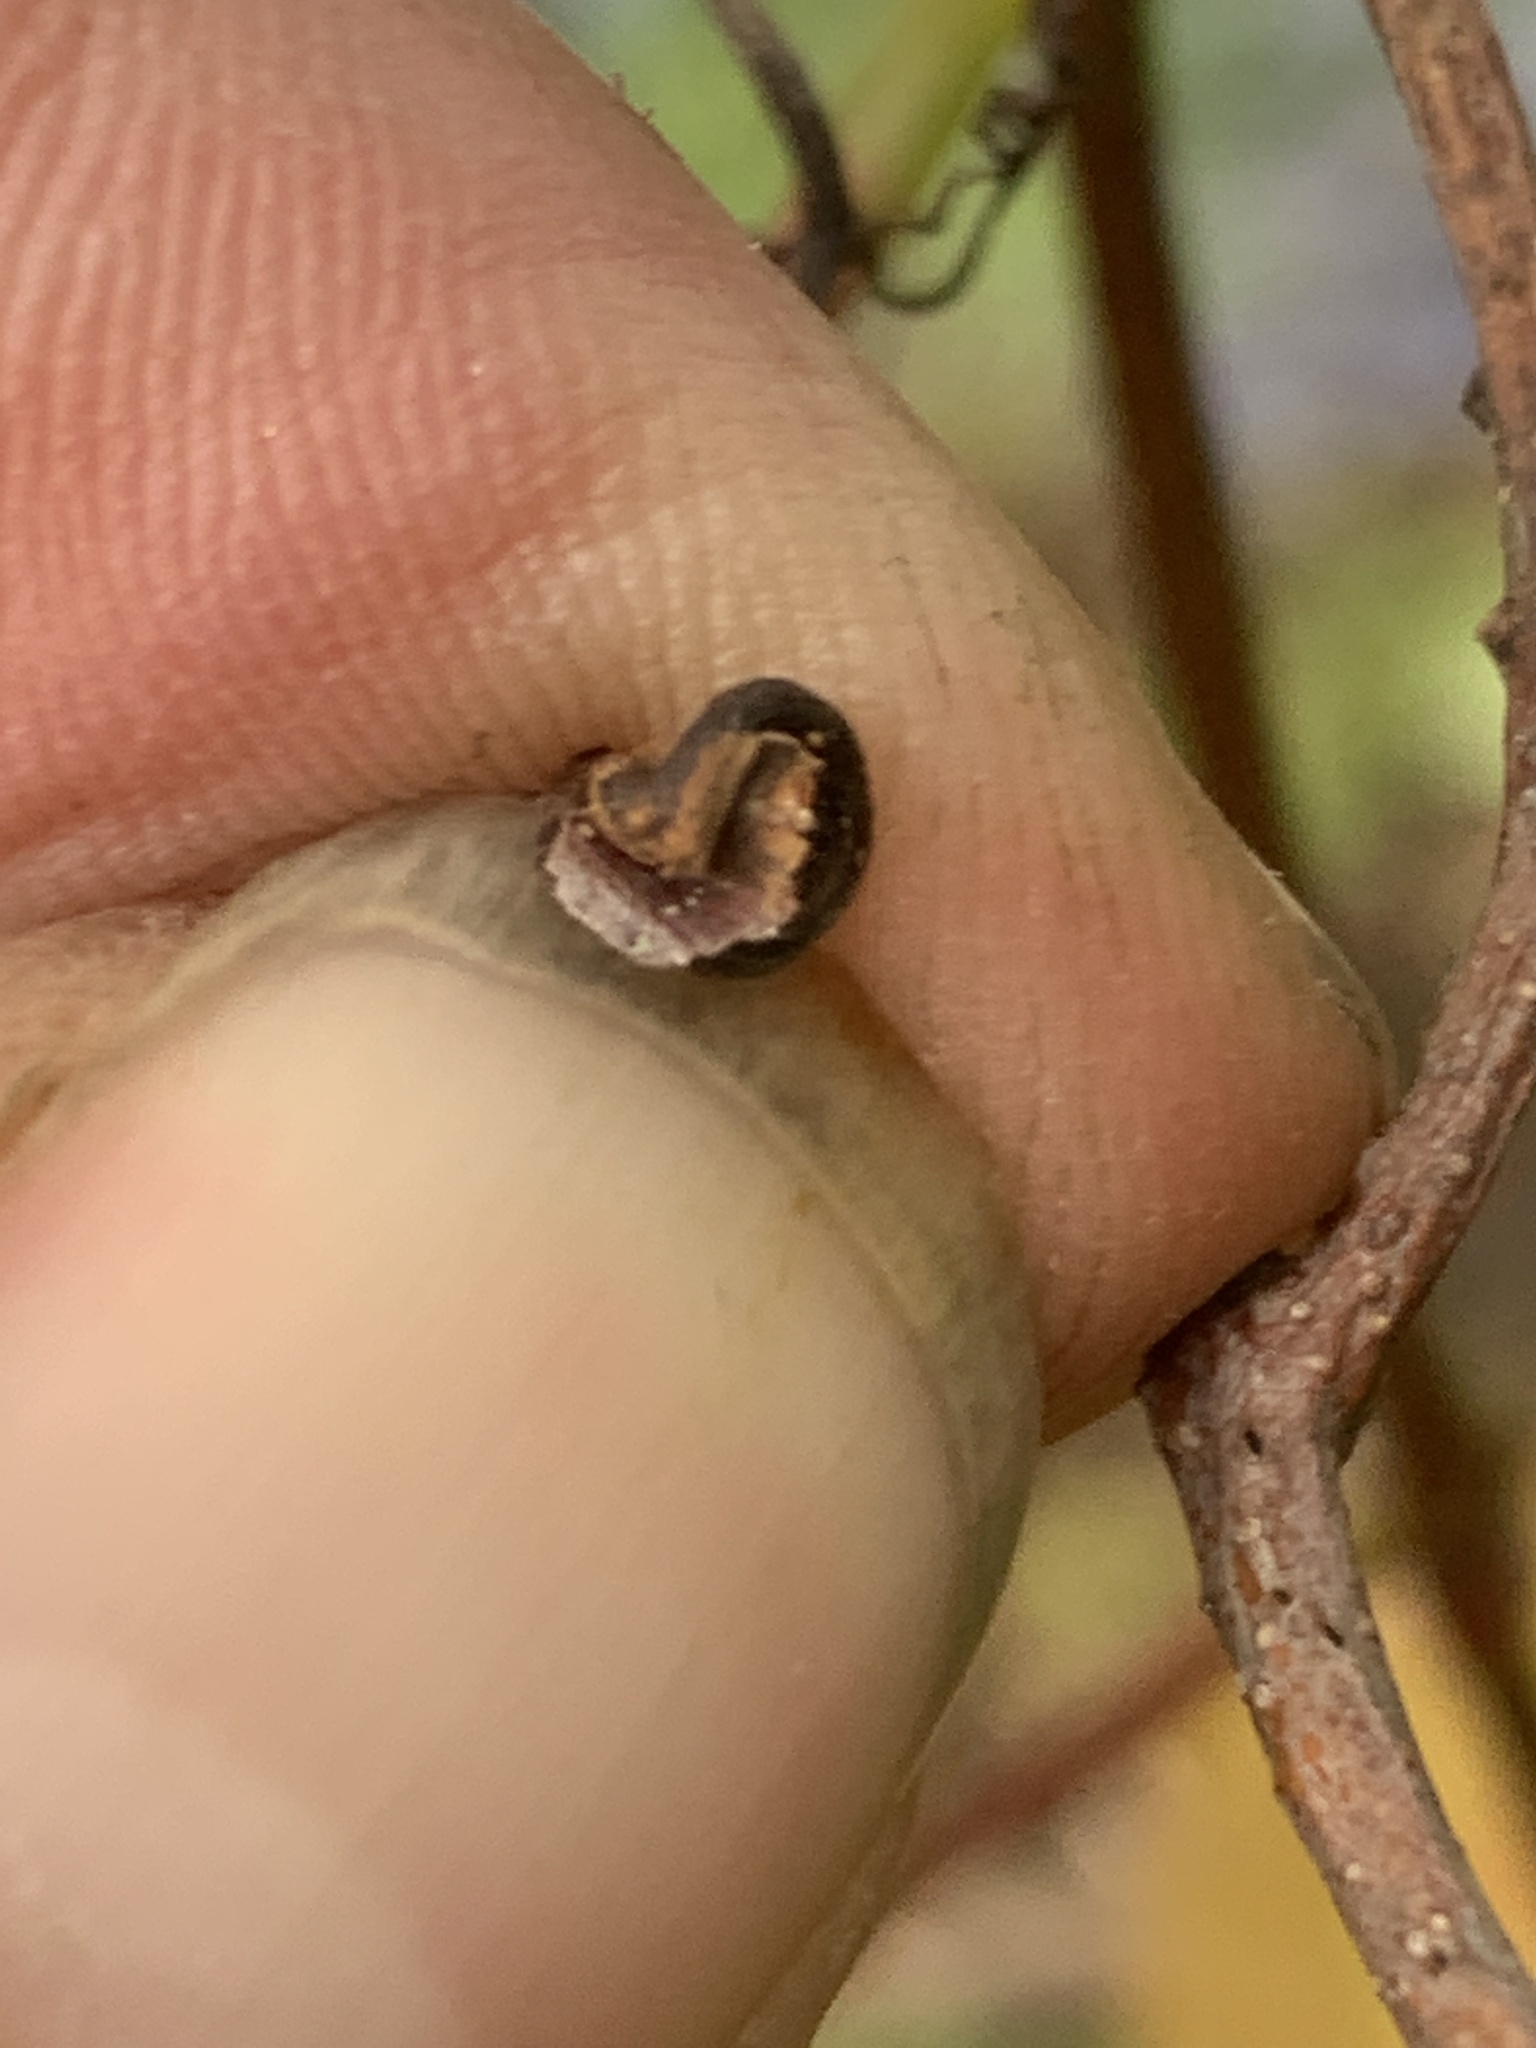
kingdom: Plantae
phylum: Tracheophyta
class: Magnoliopsida
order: Vitales
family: Vitaceae
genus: Parthenocissus
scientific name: Parthenocissus quinquefolia
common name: Virginia-creeper
